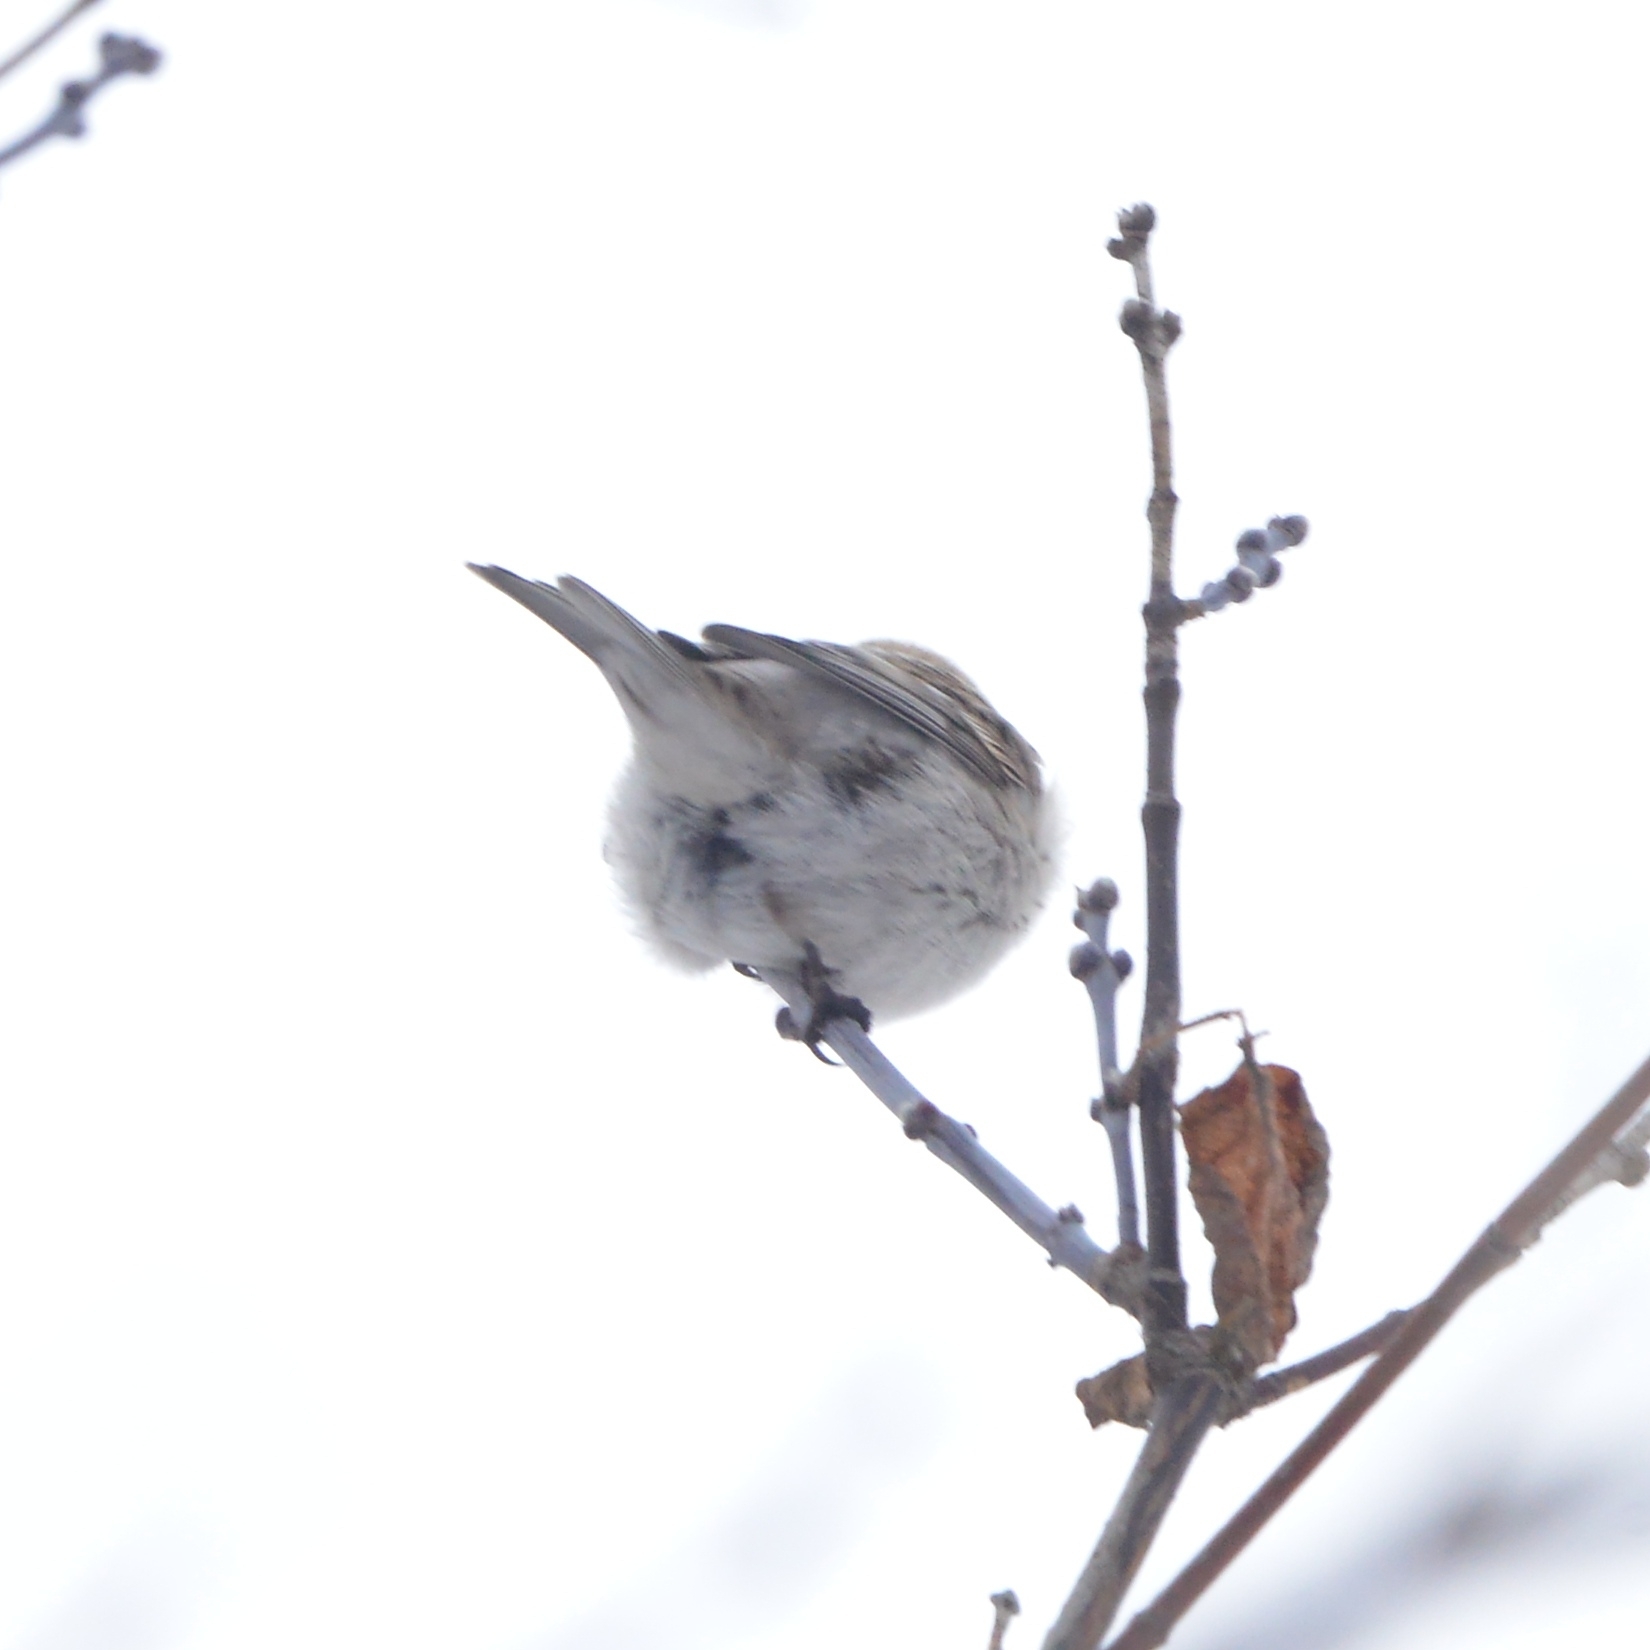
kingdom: Animalia
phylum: Chordata
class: Aves
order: Passeriformes
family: Fringillidae
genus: Acanthis
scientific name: Acanthis hornemanni
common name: Arctic redpoll
